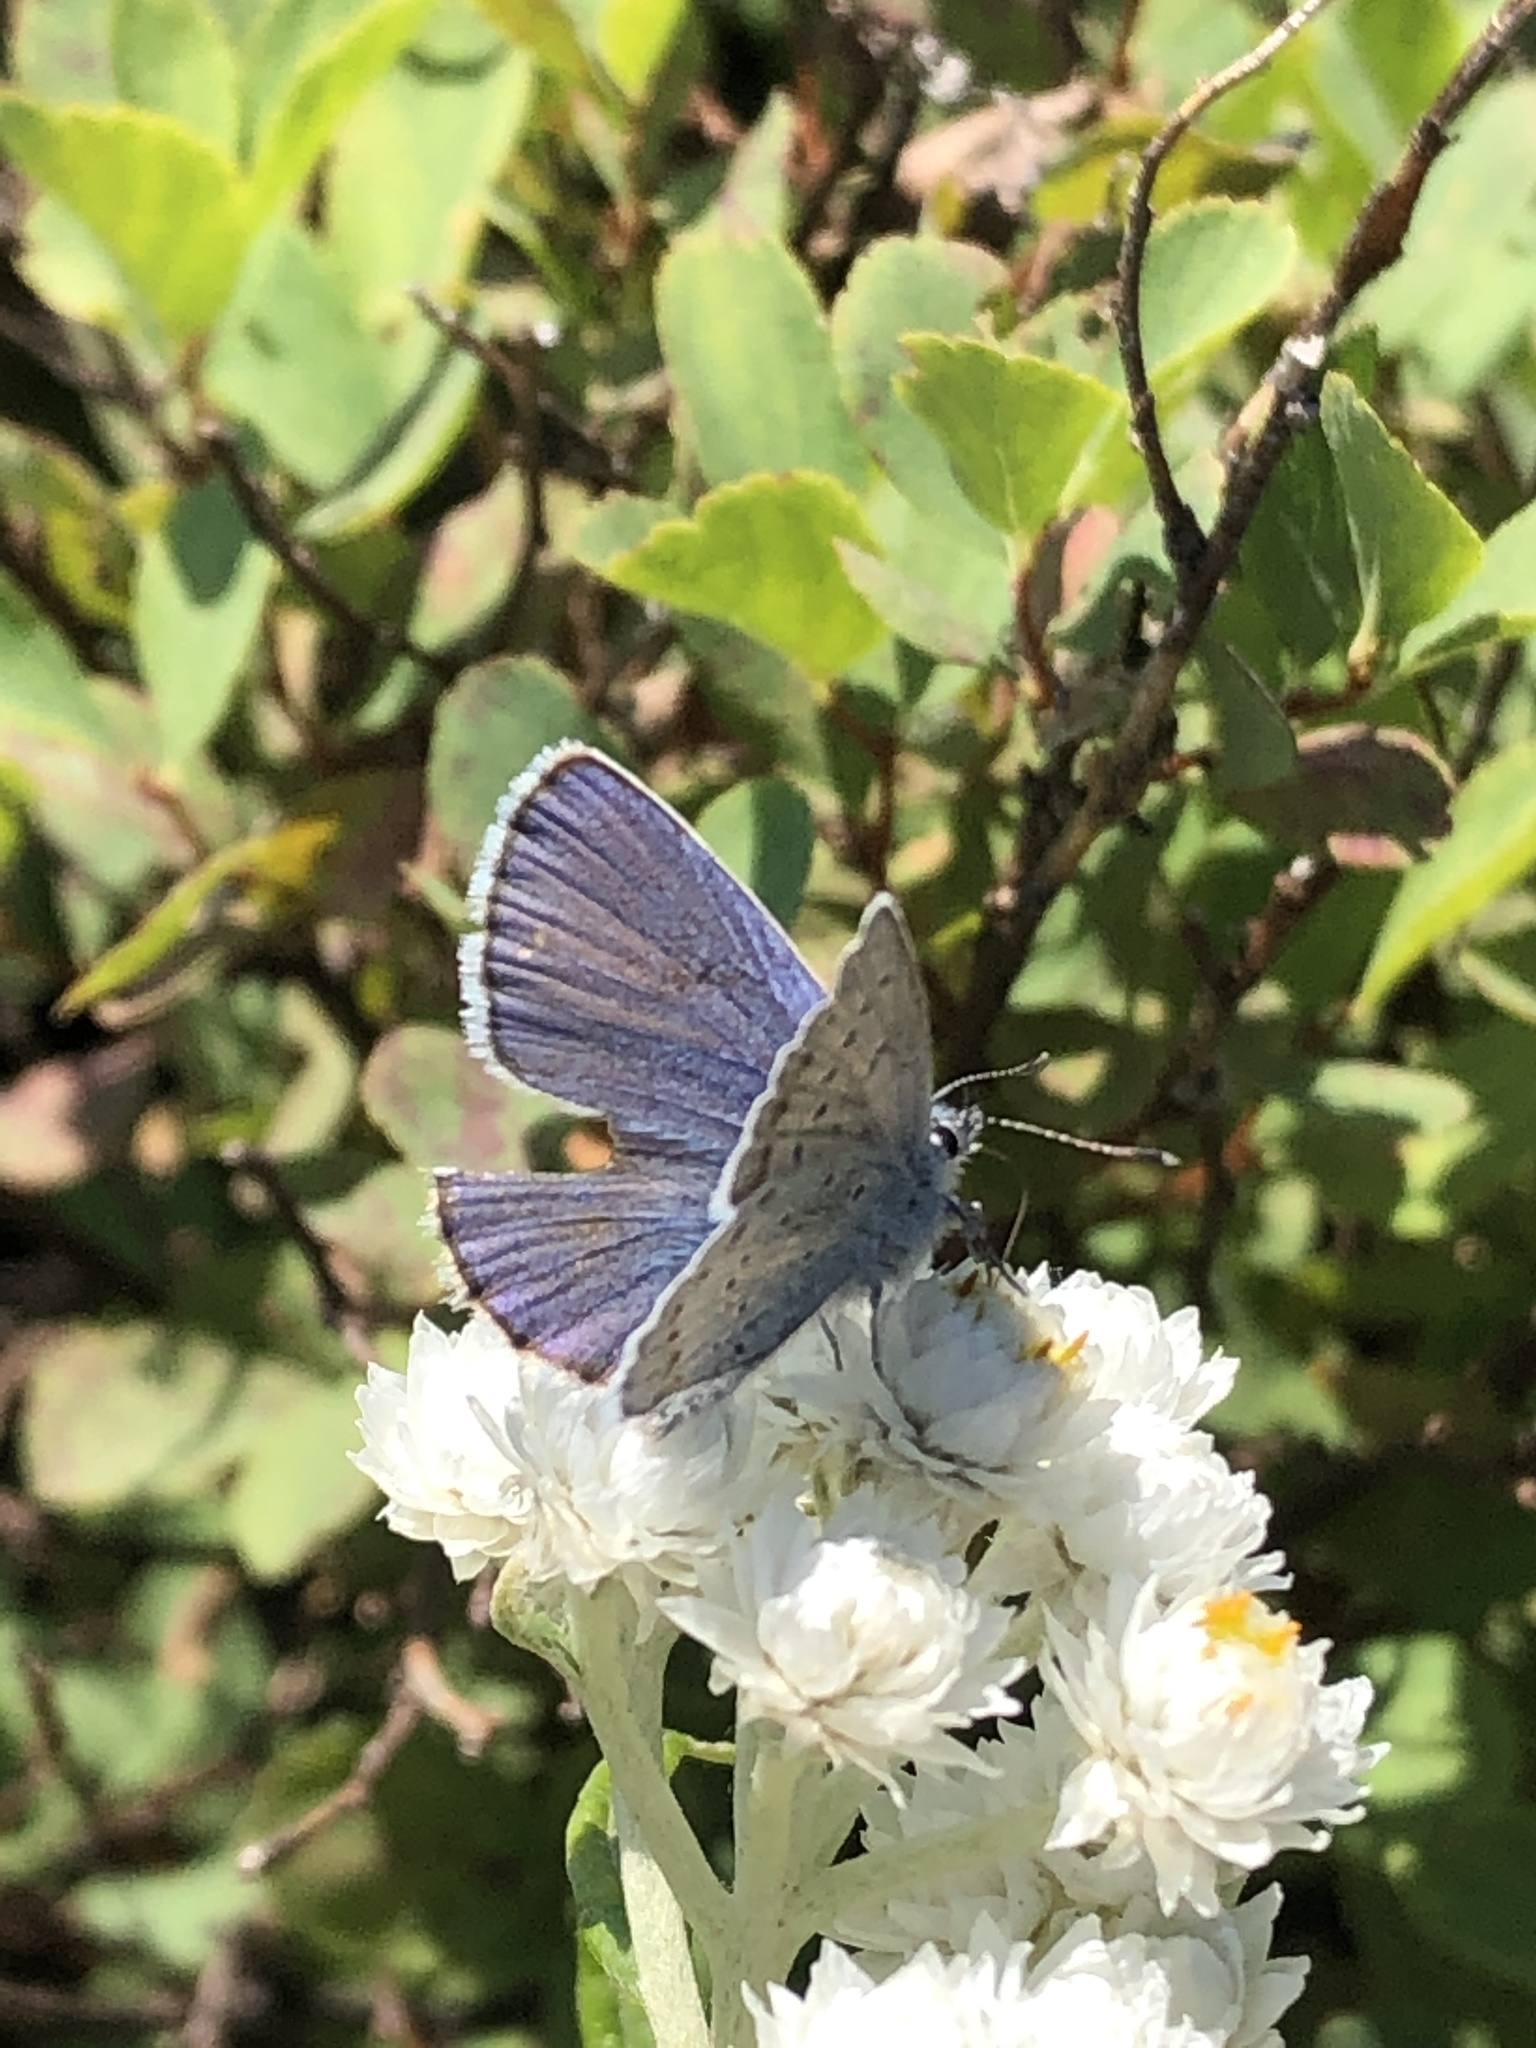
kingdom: Animalia
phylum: Arthropoda
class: Insecta
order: Lepidoptera
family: Lycaenidae
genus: Lycaeides
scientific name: Lycaeides anna
